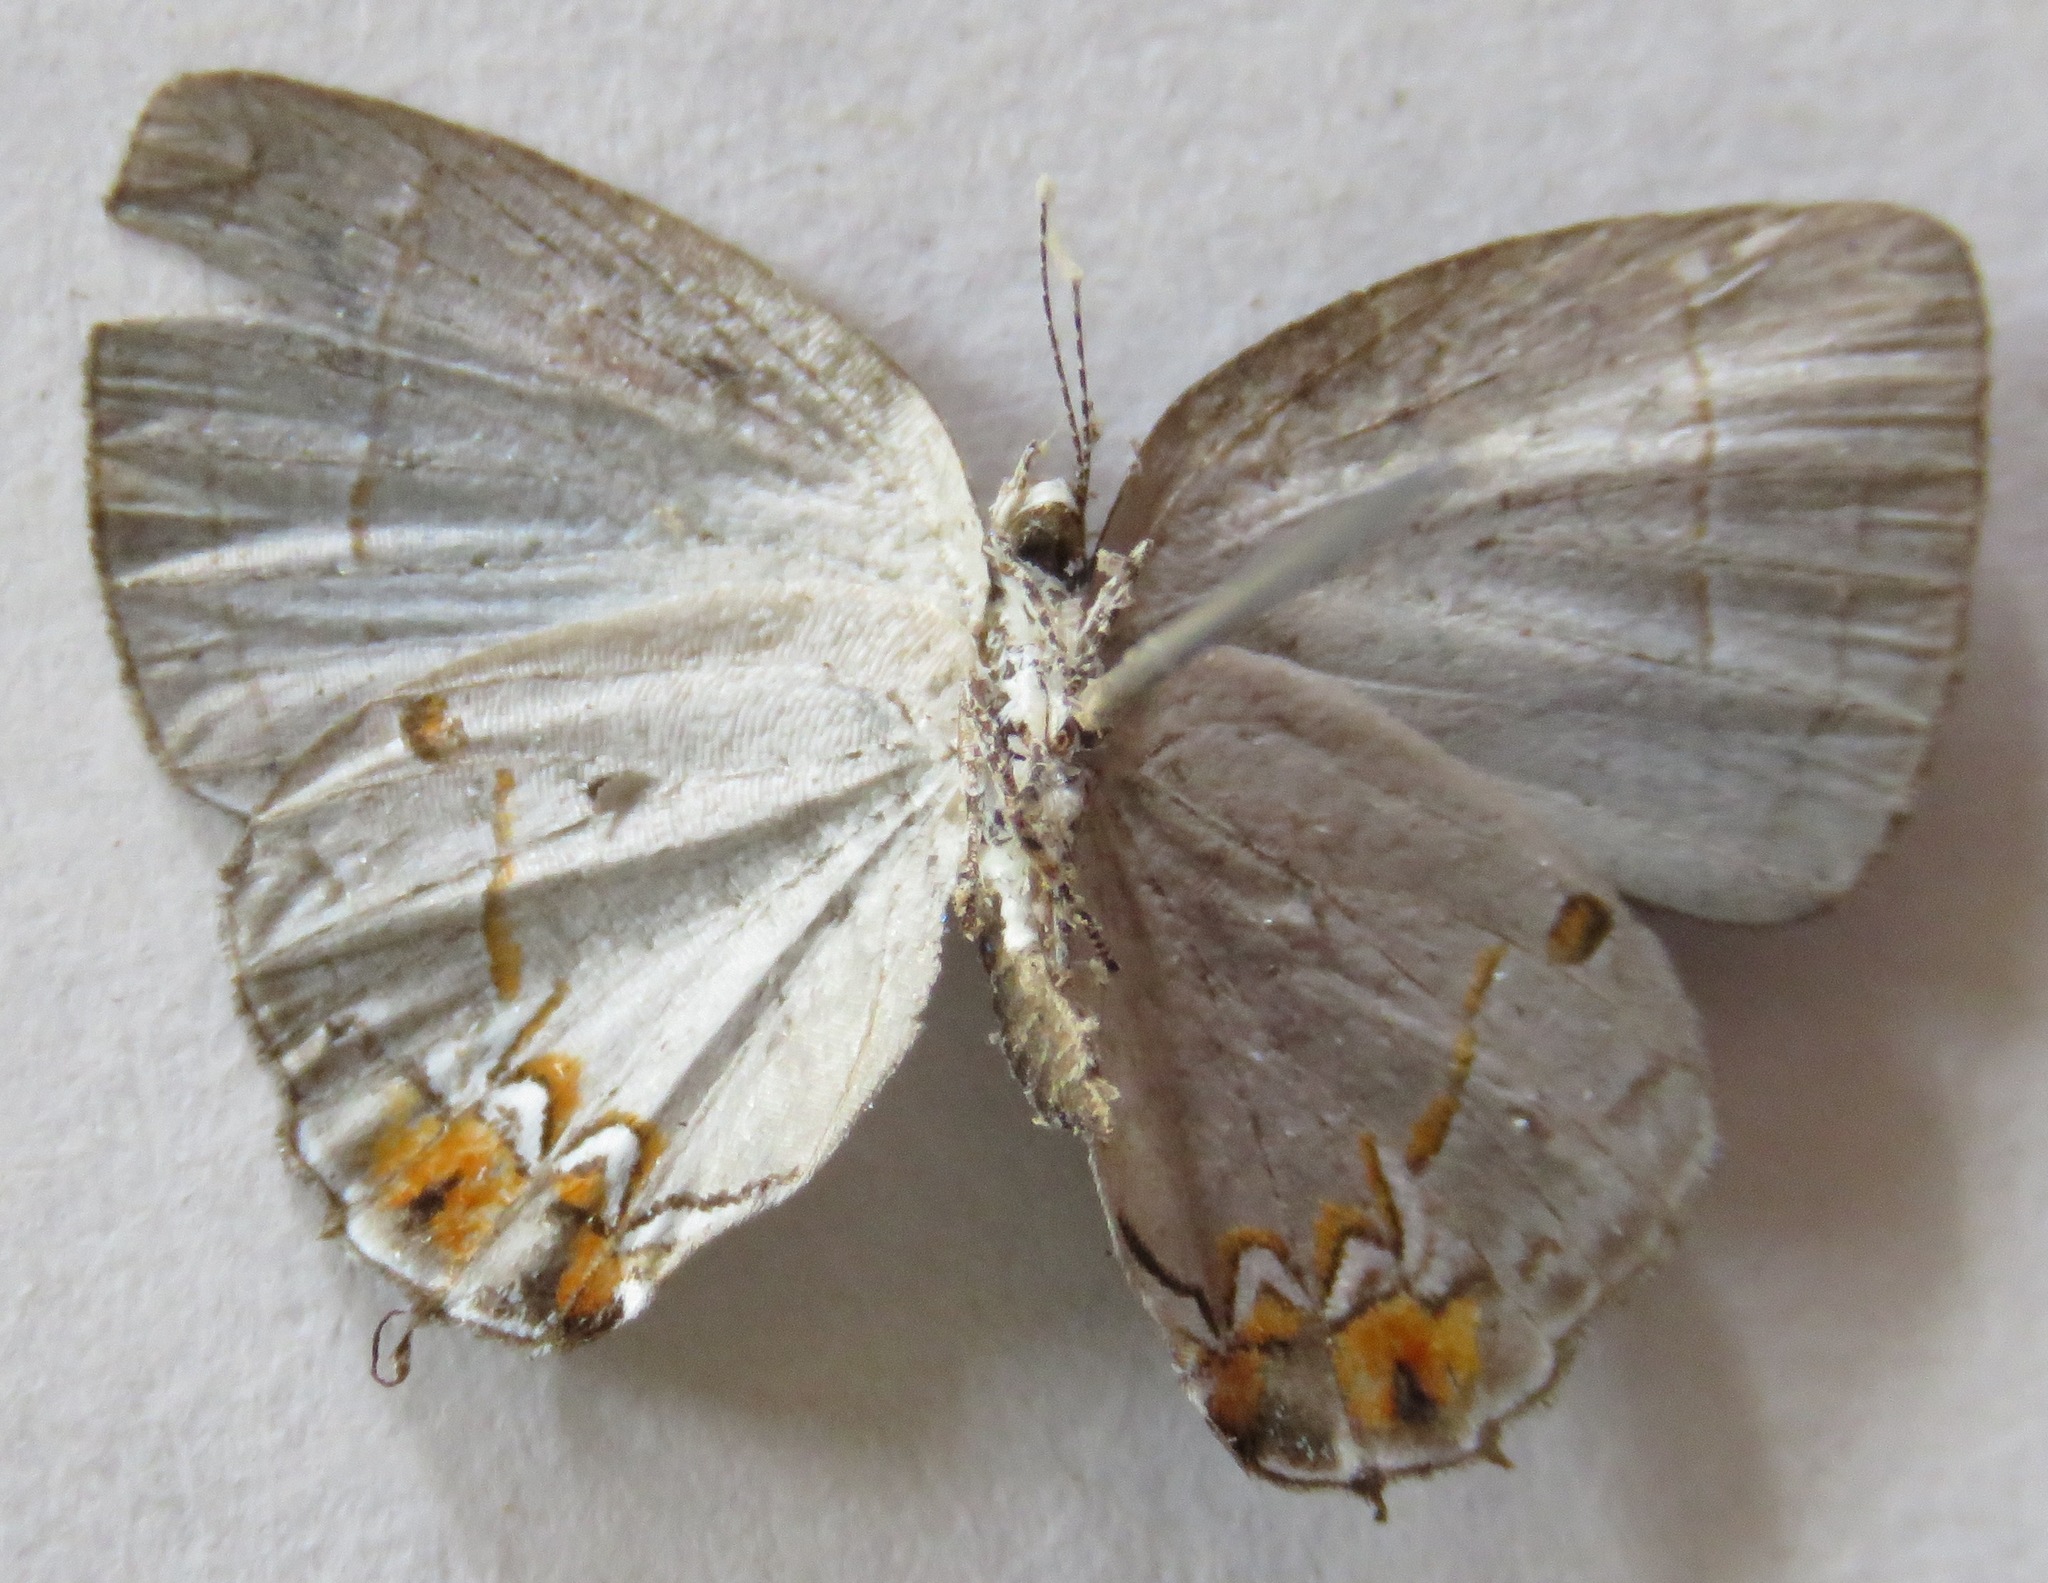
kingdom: Animalia
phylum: Arthropoda
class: Insecta
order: Lepidoptera
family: Lycaenidae
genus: Iaspis
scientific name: Iaspis andersoni
